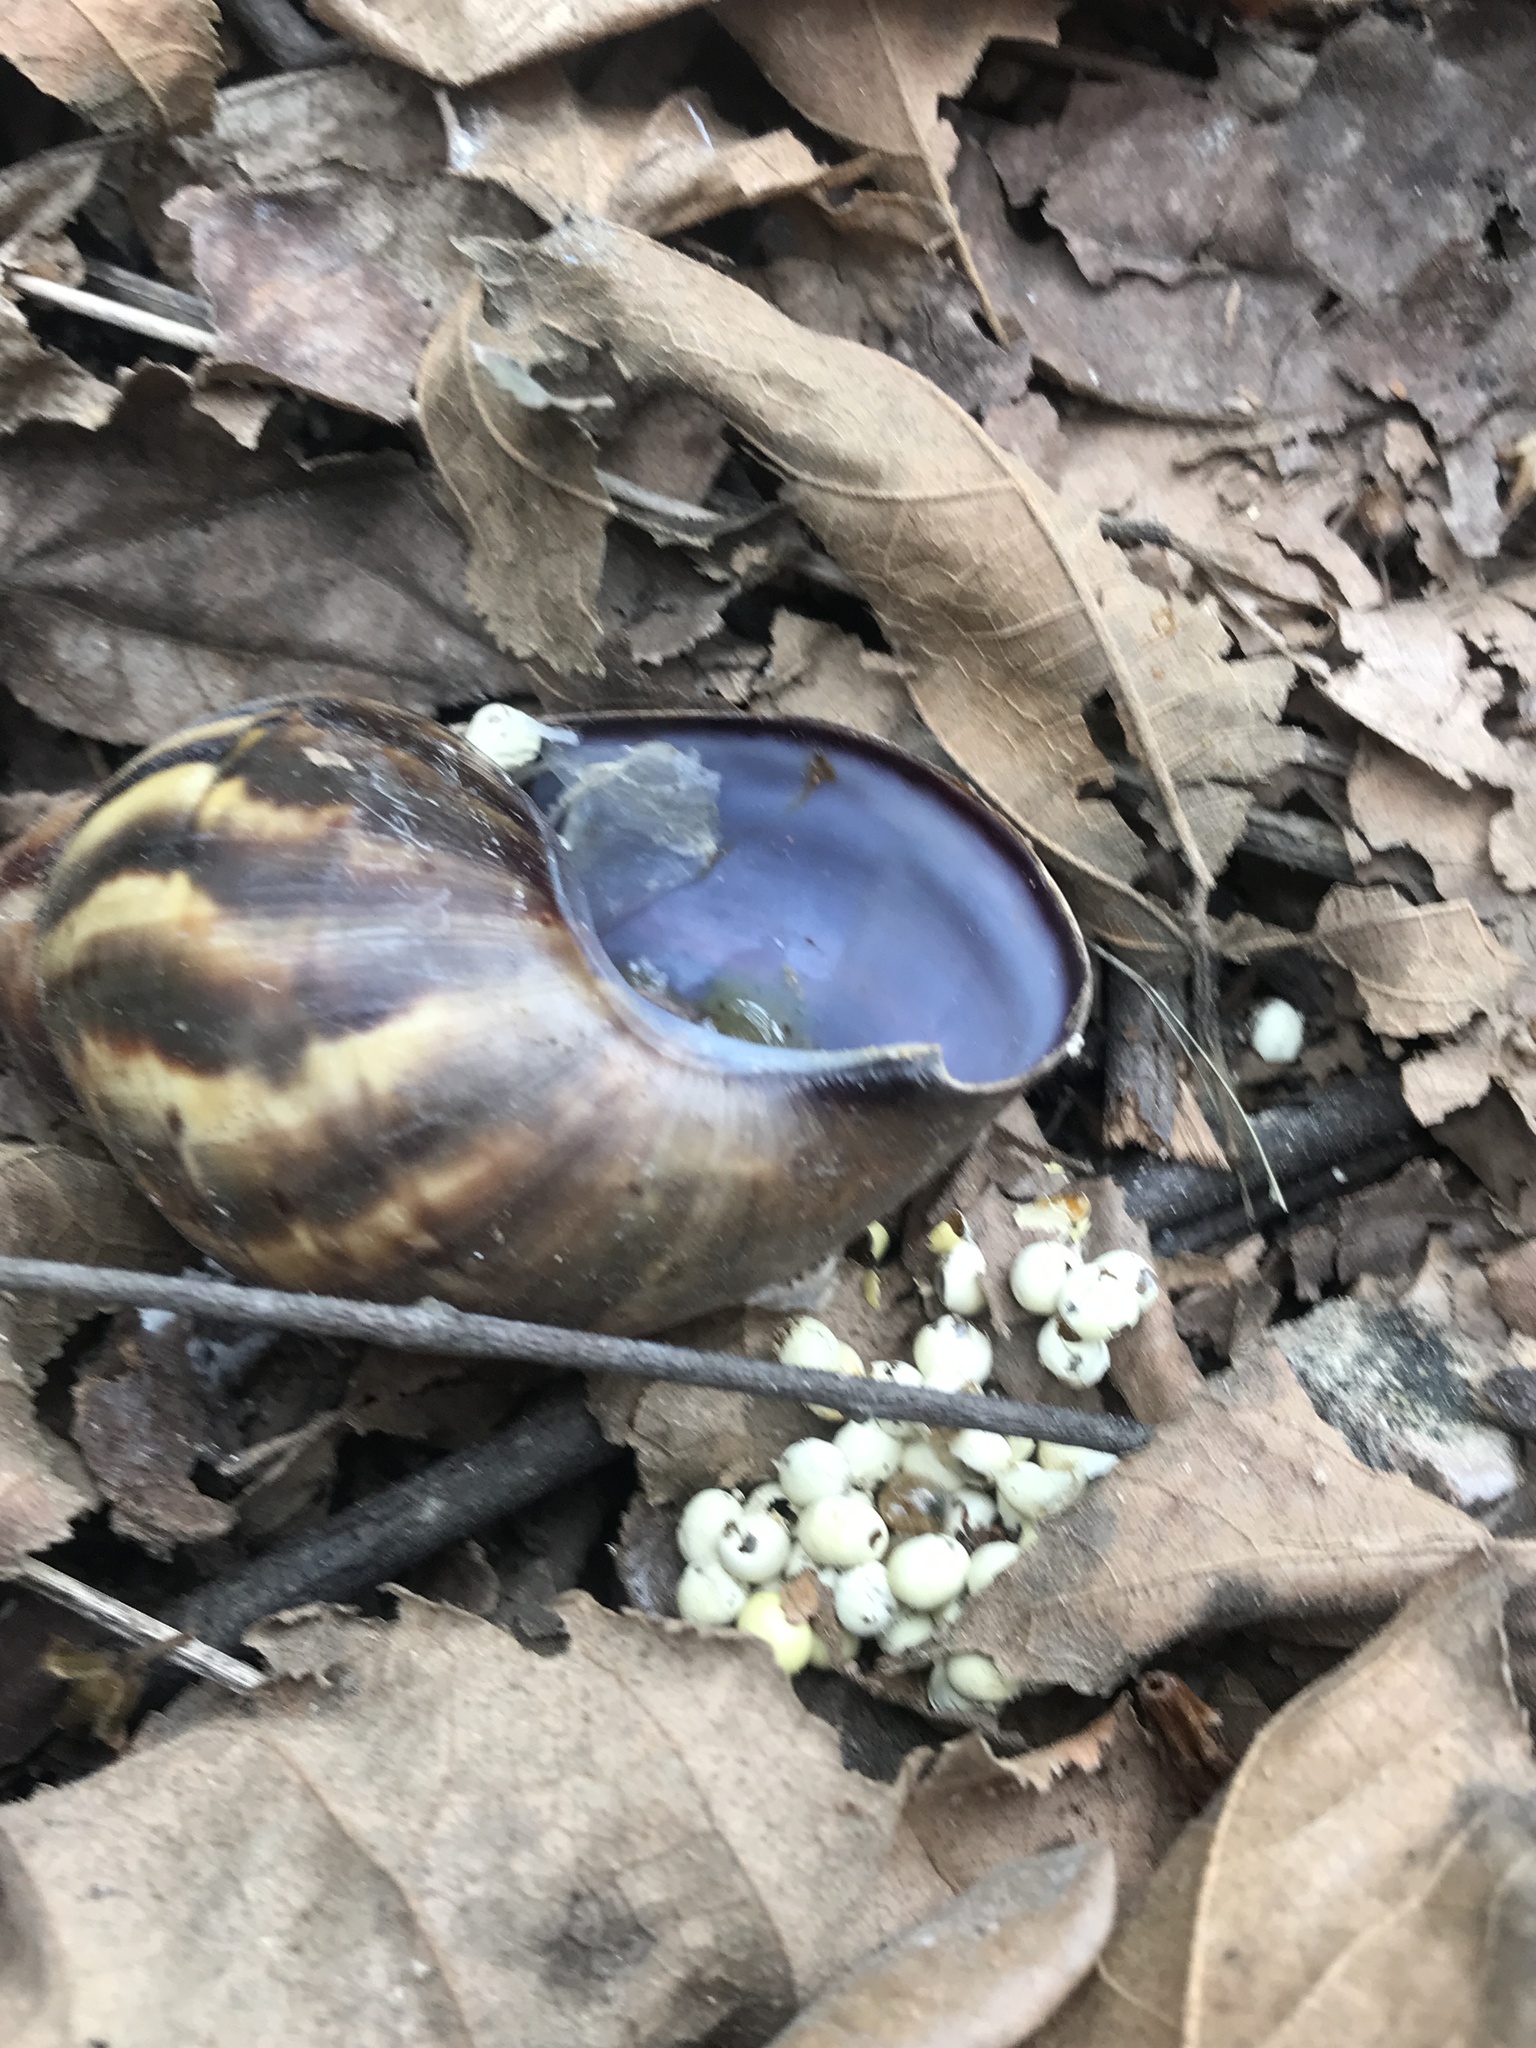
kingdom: Animalia
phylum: Mollusca
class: Gastropoda
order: Stylommatophora
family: Achatinidae
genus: Lissachatina
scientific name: Lissachatina fulica
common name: Giant african snail
